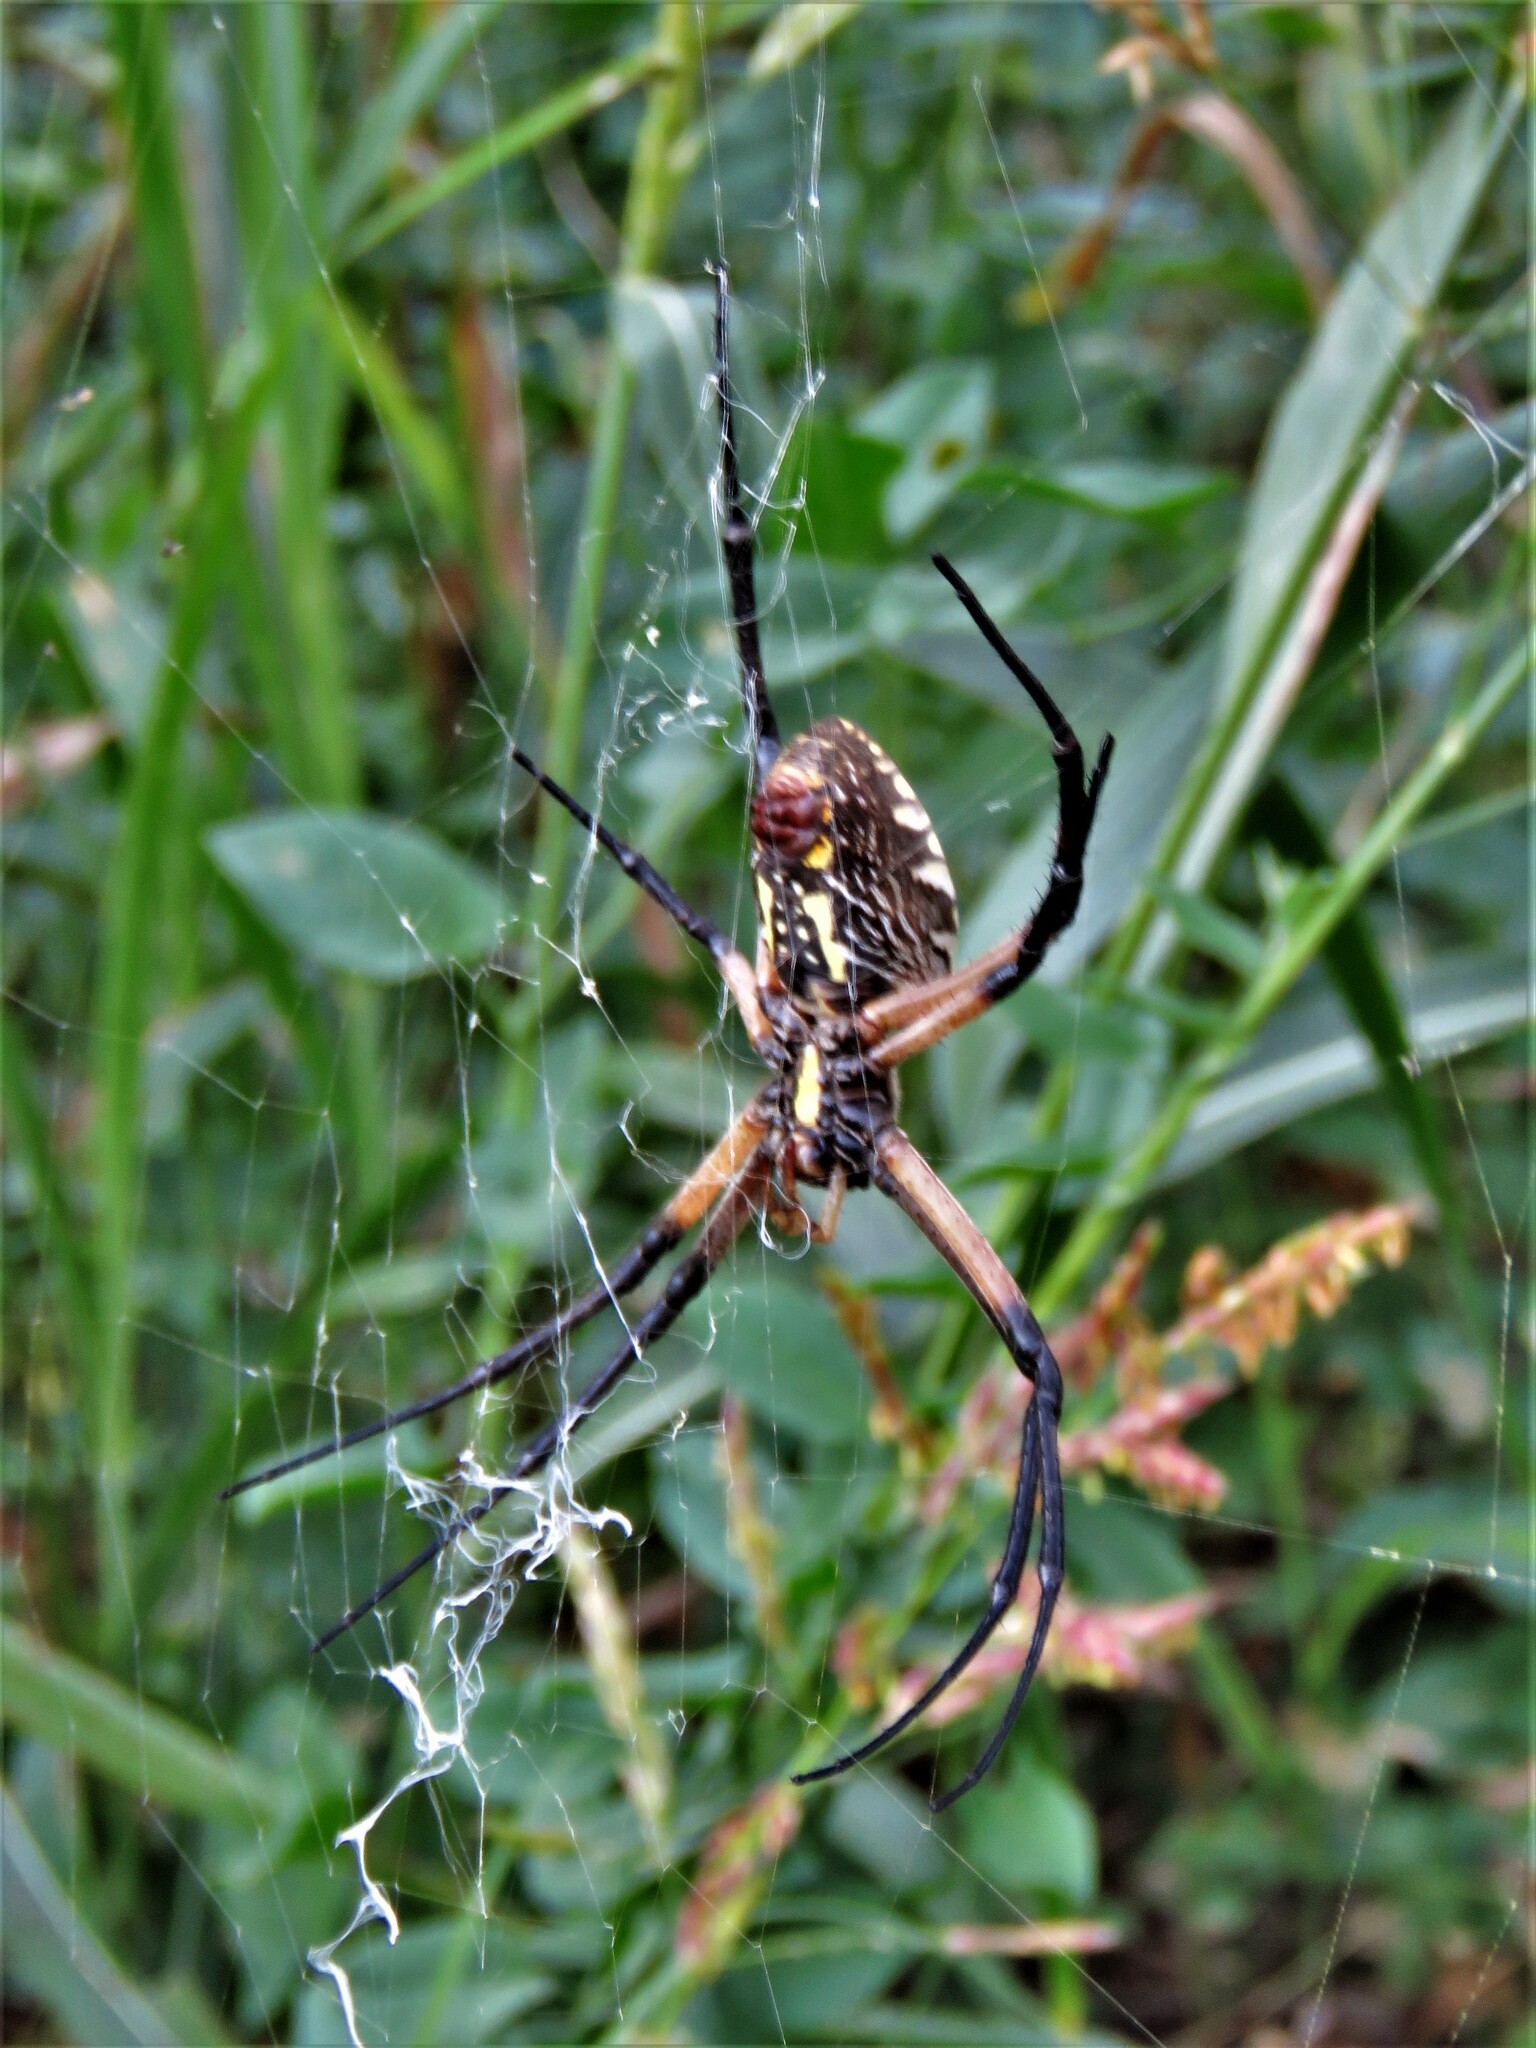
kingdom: Animalia
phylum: Arthropoda
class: Arachnida
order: Araneae
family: Araneidae
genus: Argiope
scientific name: Argiope aurantia
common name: Orb weavers
